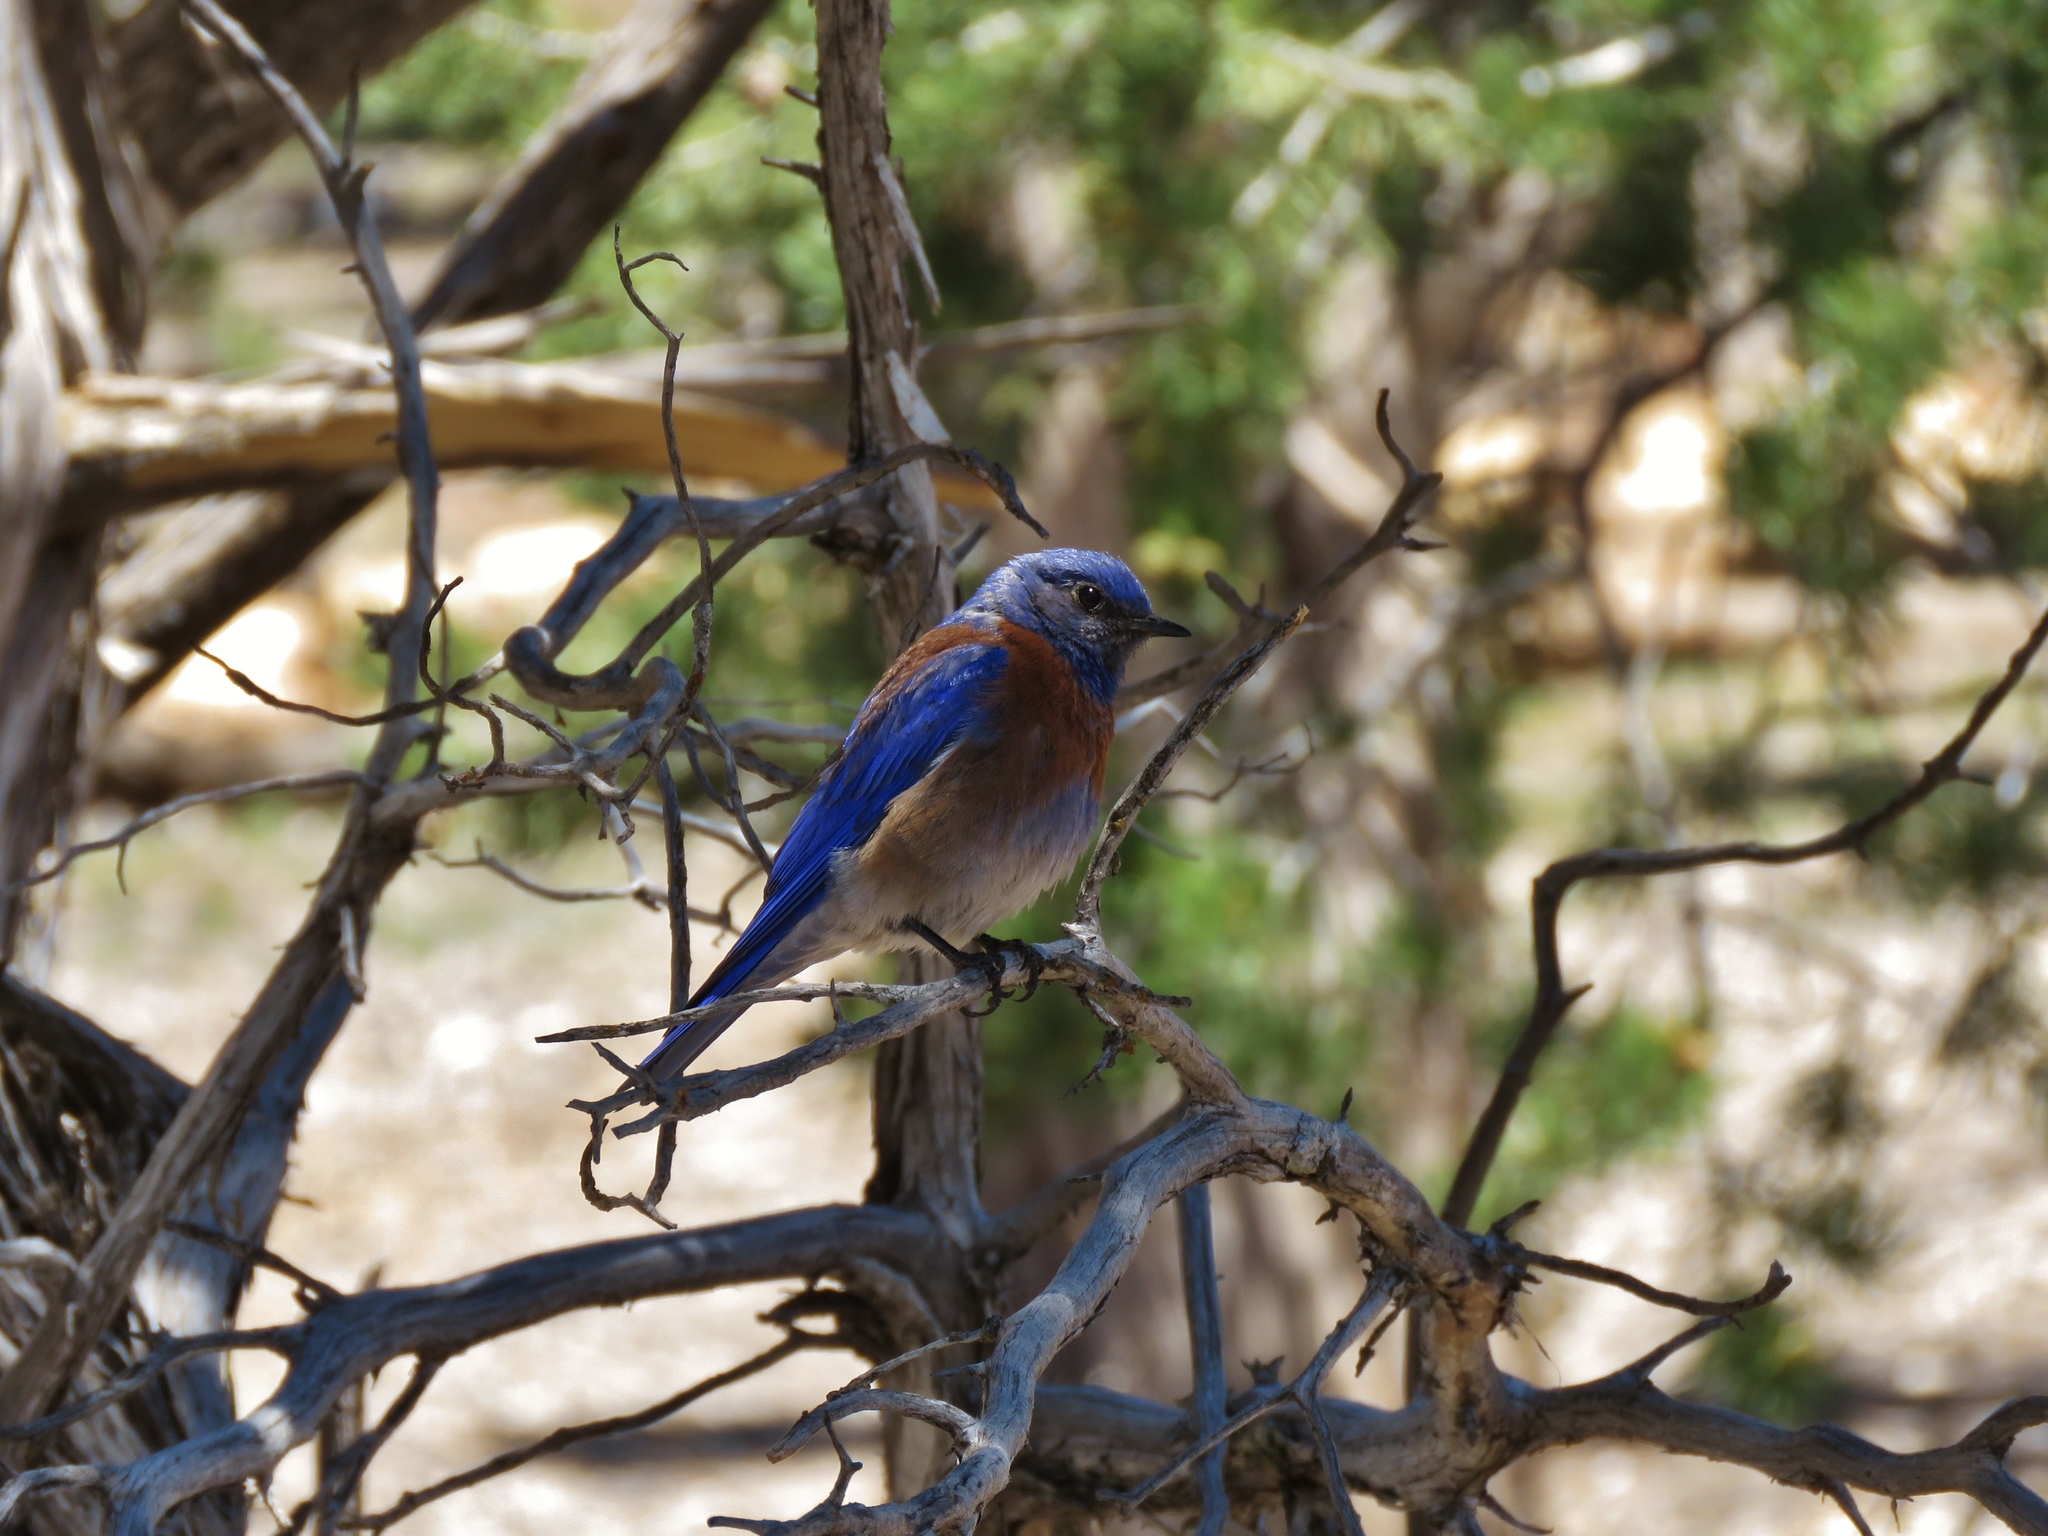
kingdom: Animalia
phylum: Chordata
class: Aves
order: Passeriformes
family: Turdidae
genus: Sialia
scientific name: Sialia mexicana
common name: Western bluebird
